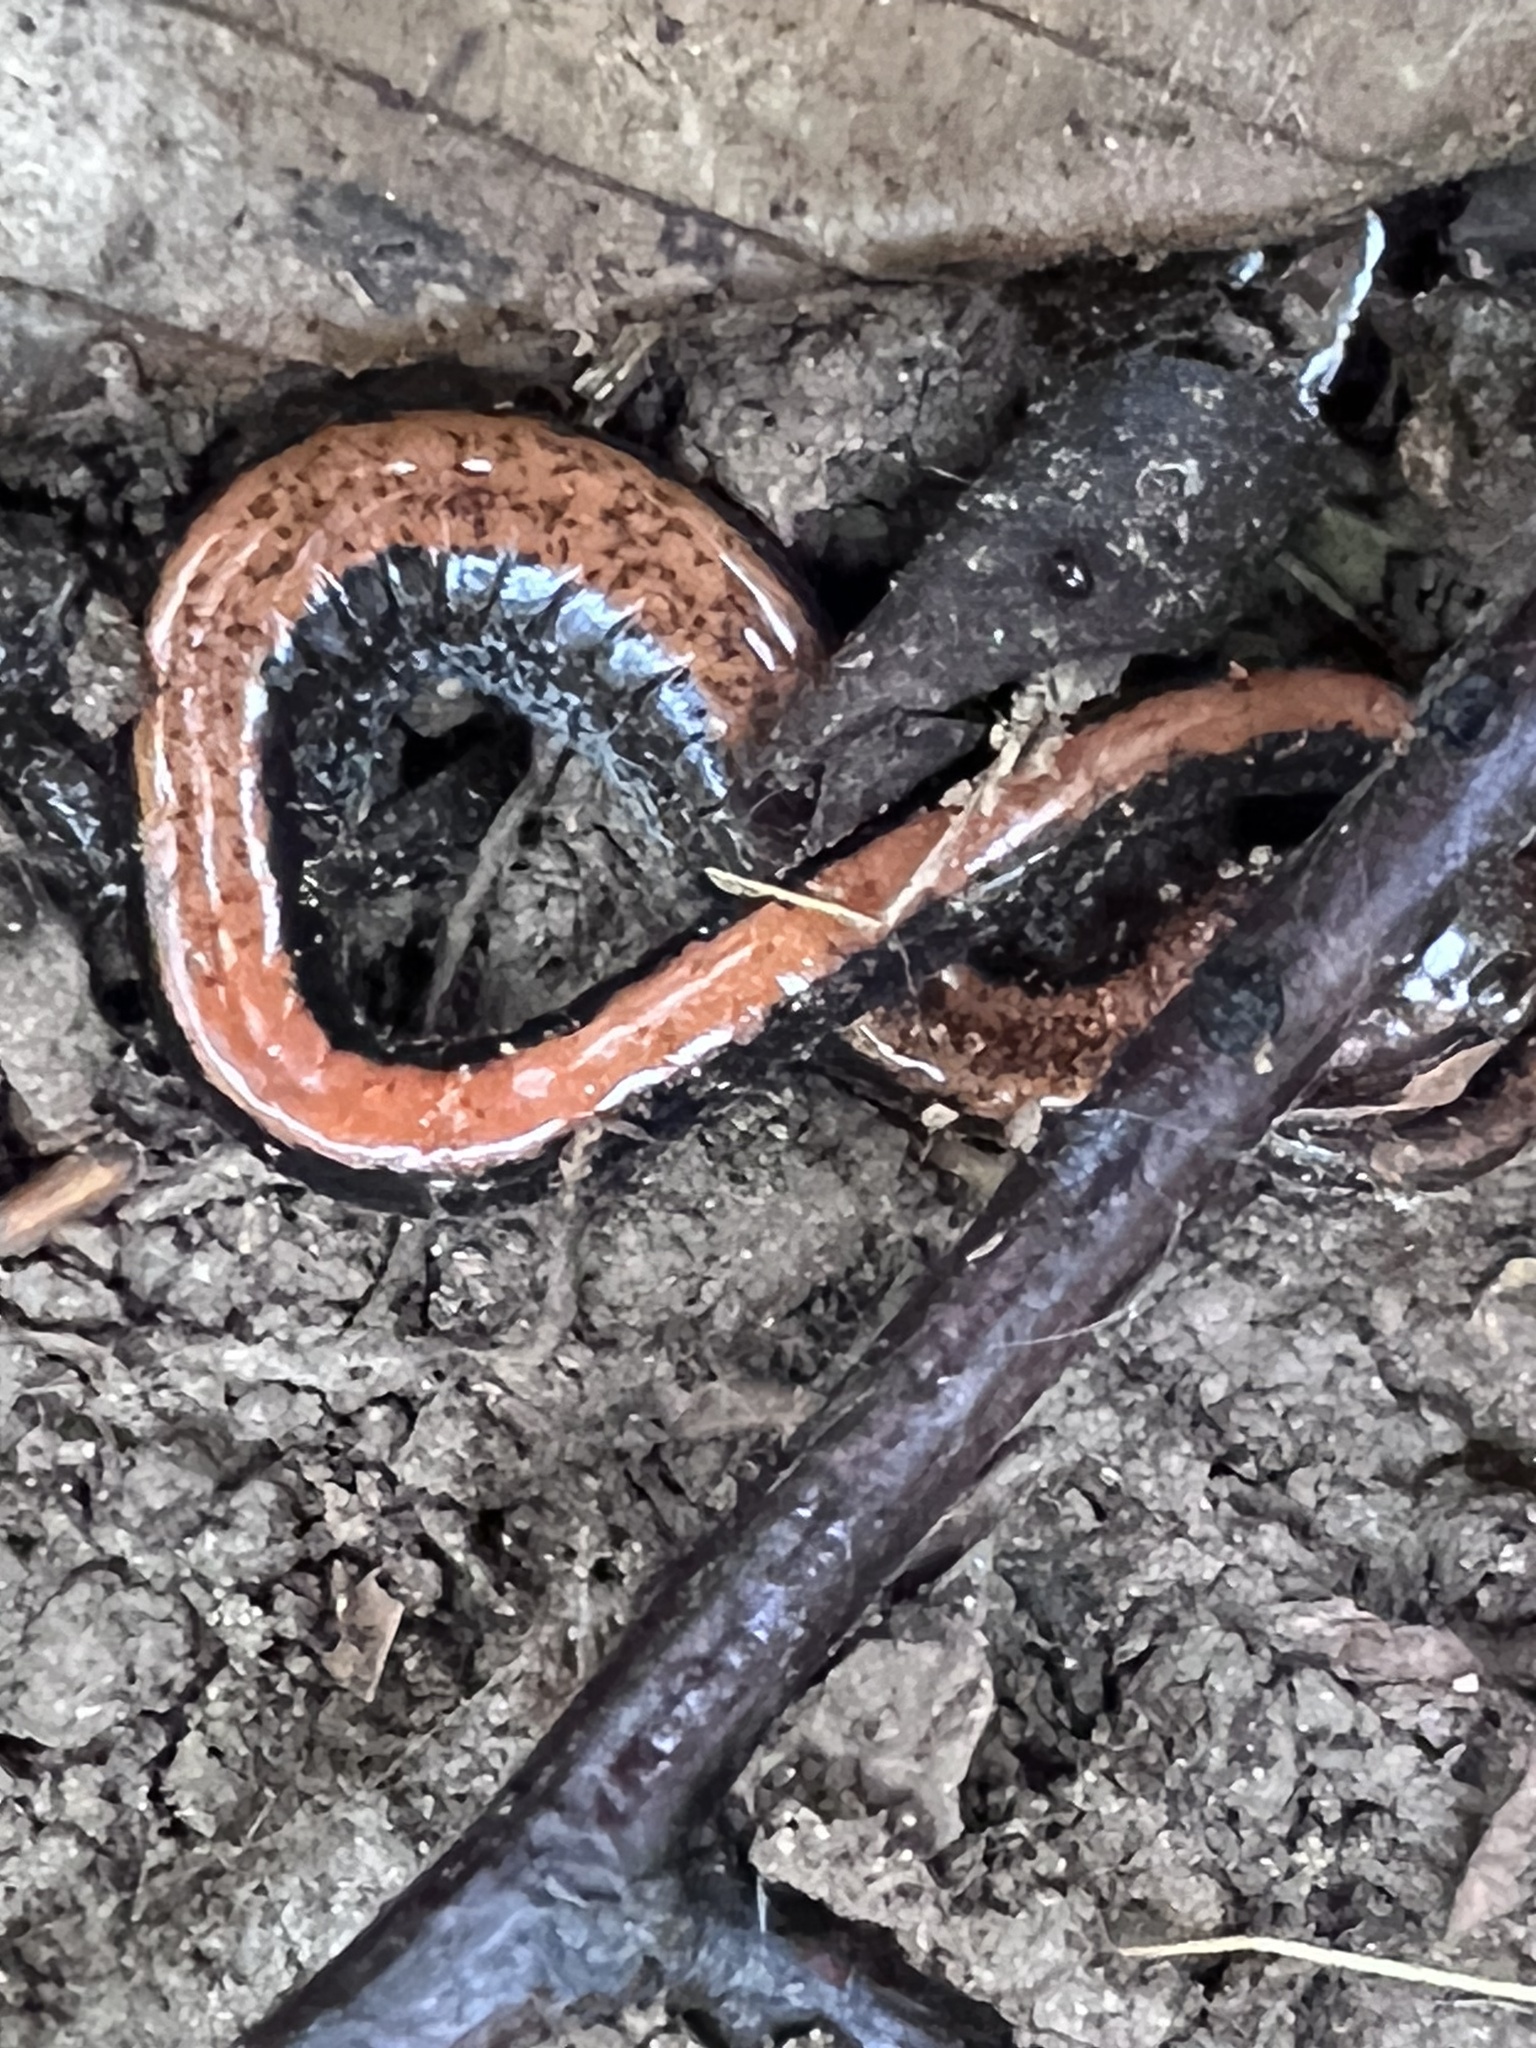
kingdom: Animalia
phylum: Chordata
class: Amphibia
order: Caudata
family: Plethodontidae
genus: Plethodon
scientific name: Plethodon cinereus
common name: Redback salamander
